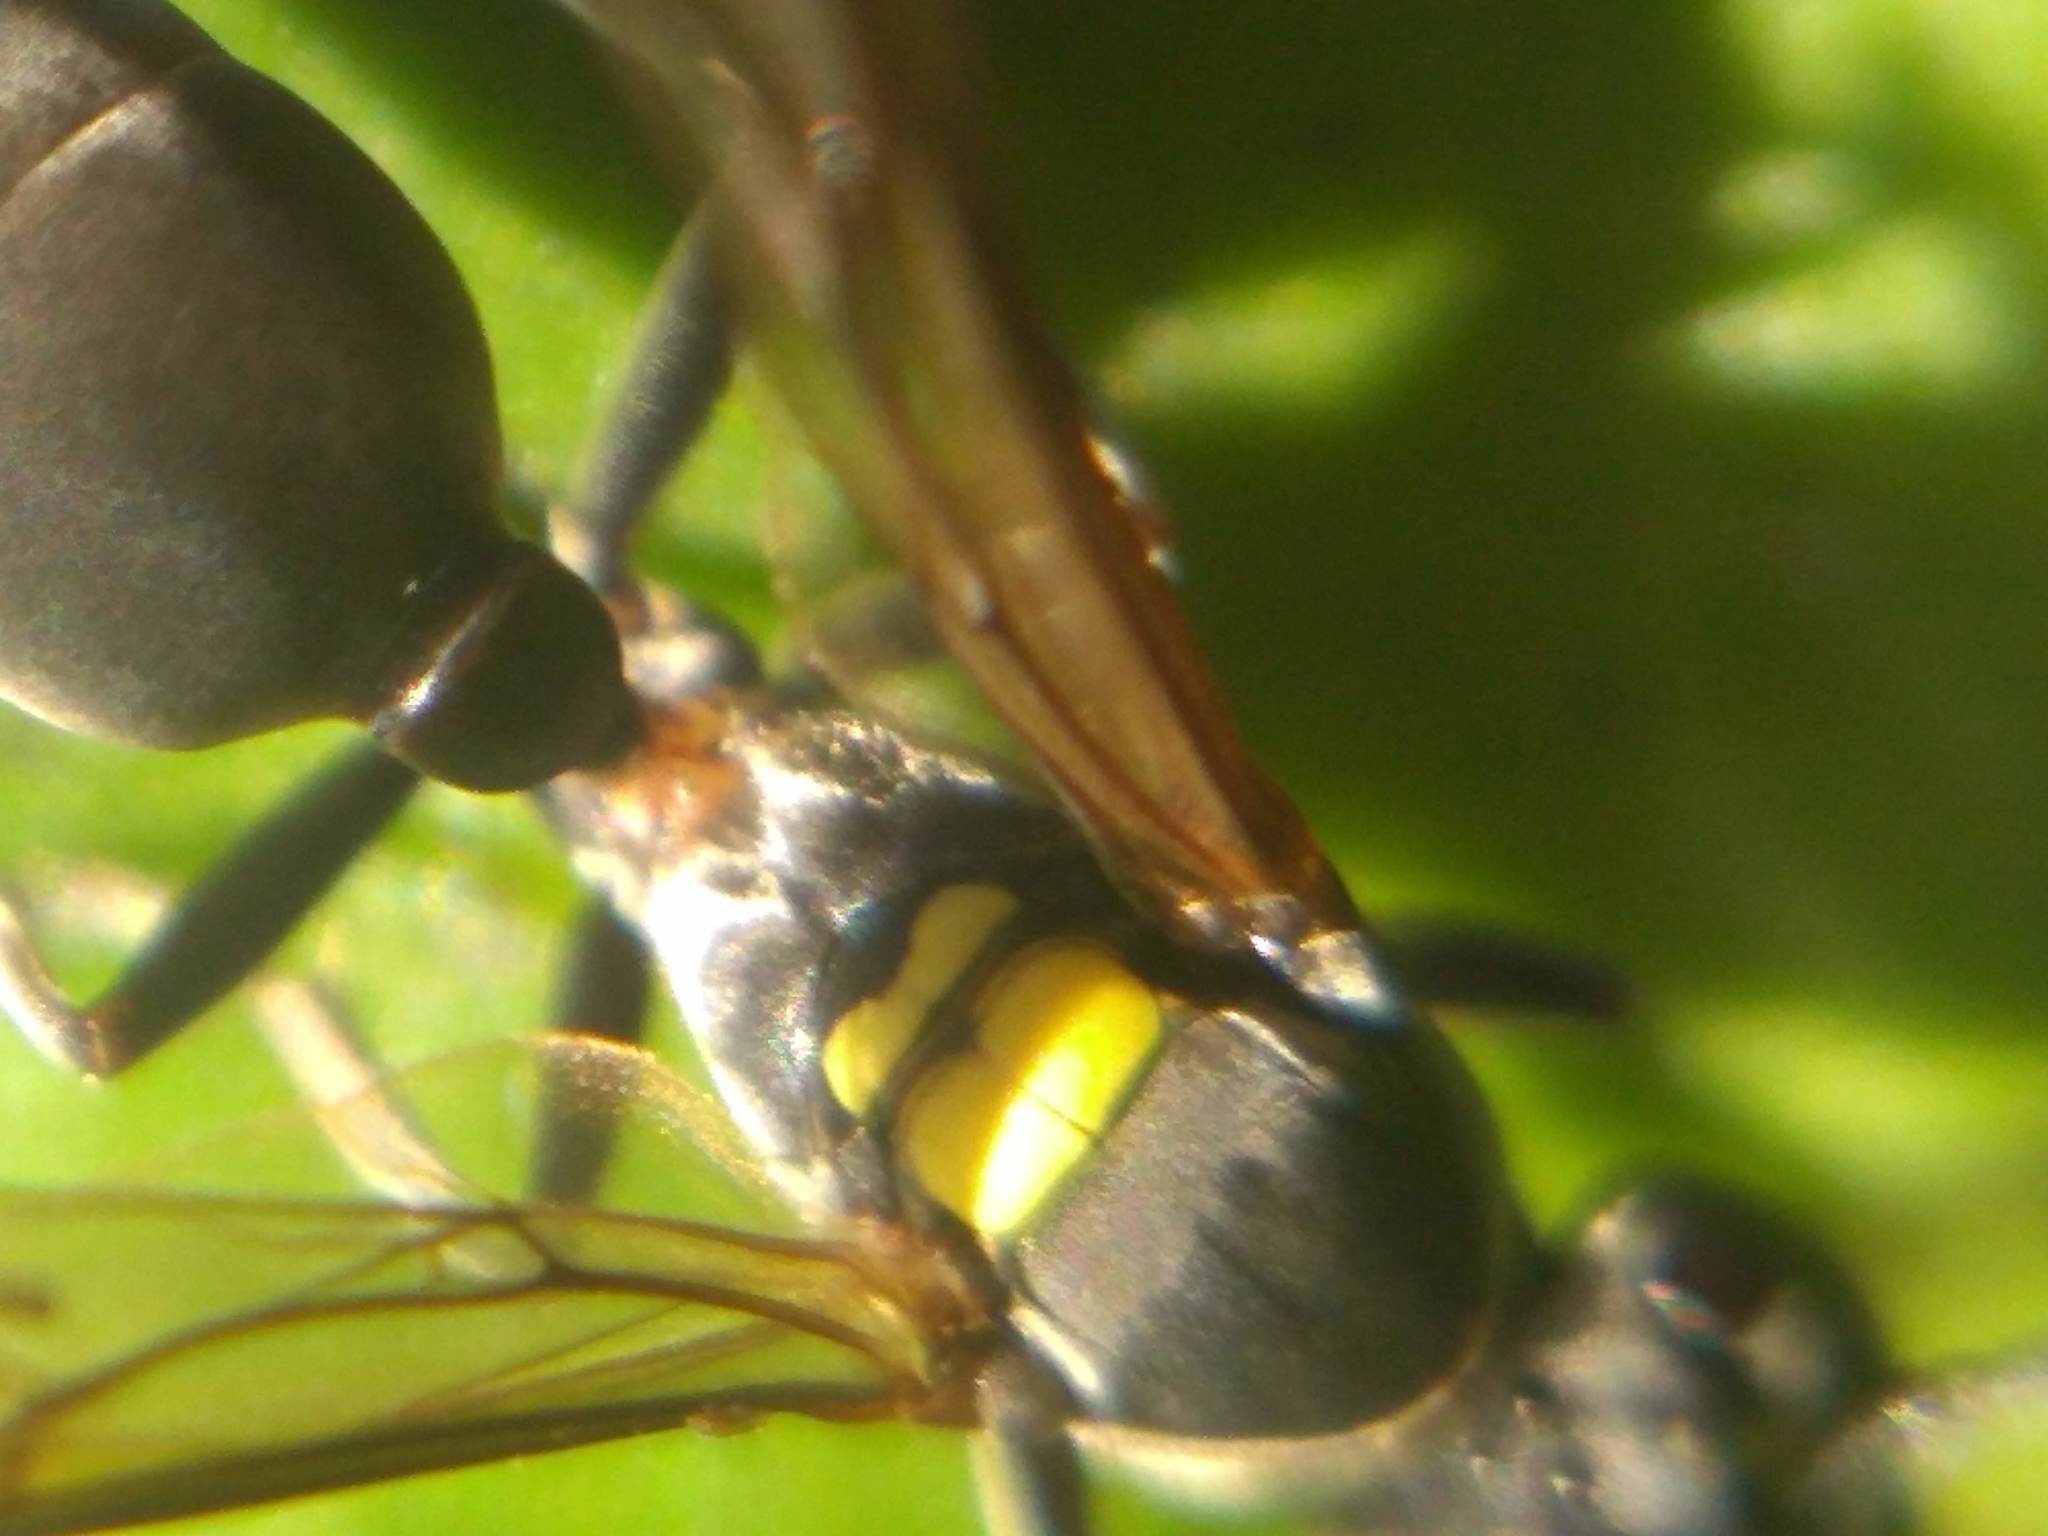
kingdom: Animalia
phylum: Arthropoda
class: Insecta
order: Hymenoptera
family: Eumenidae
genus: Polybia
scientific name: Polybia scutellaris
